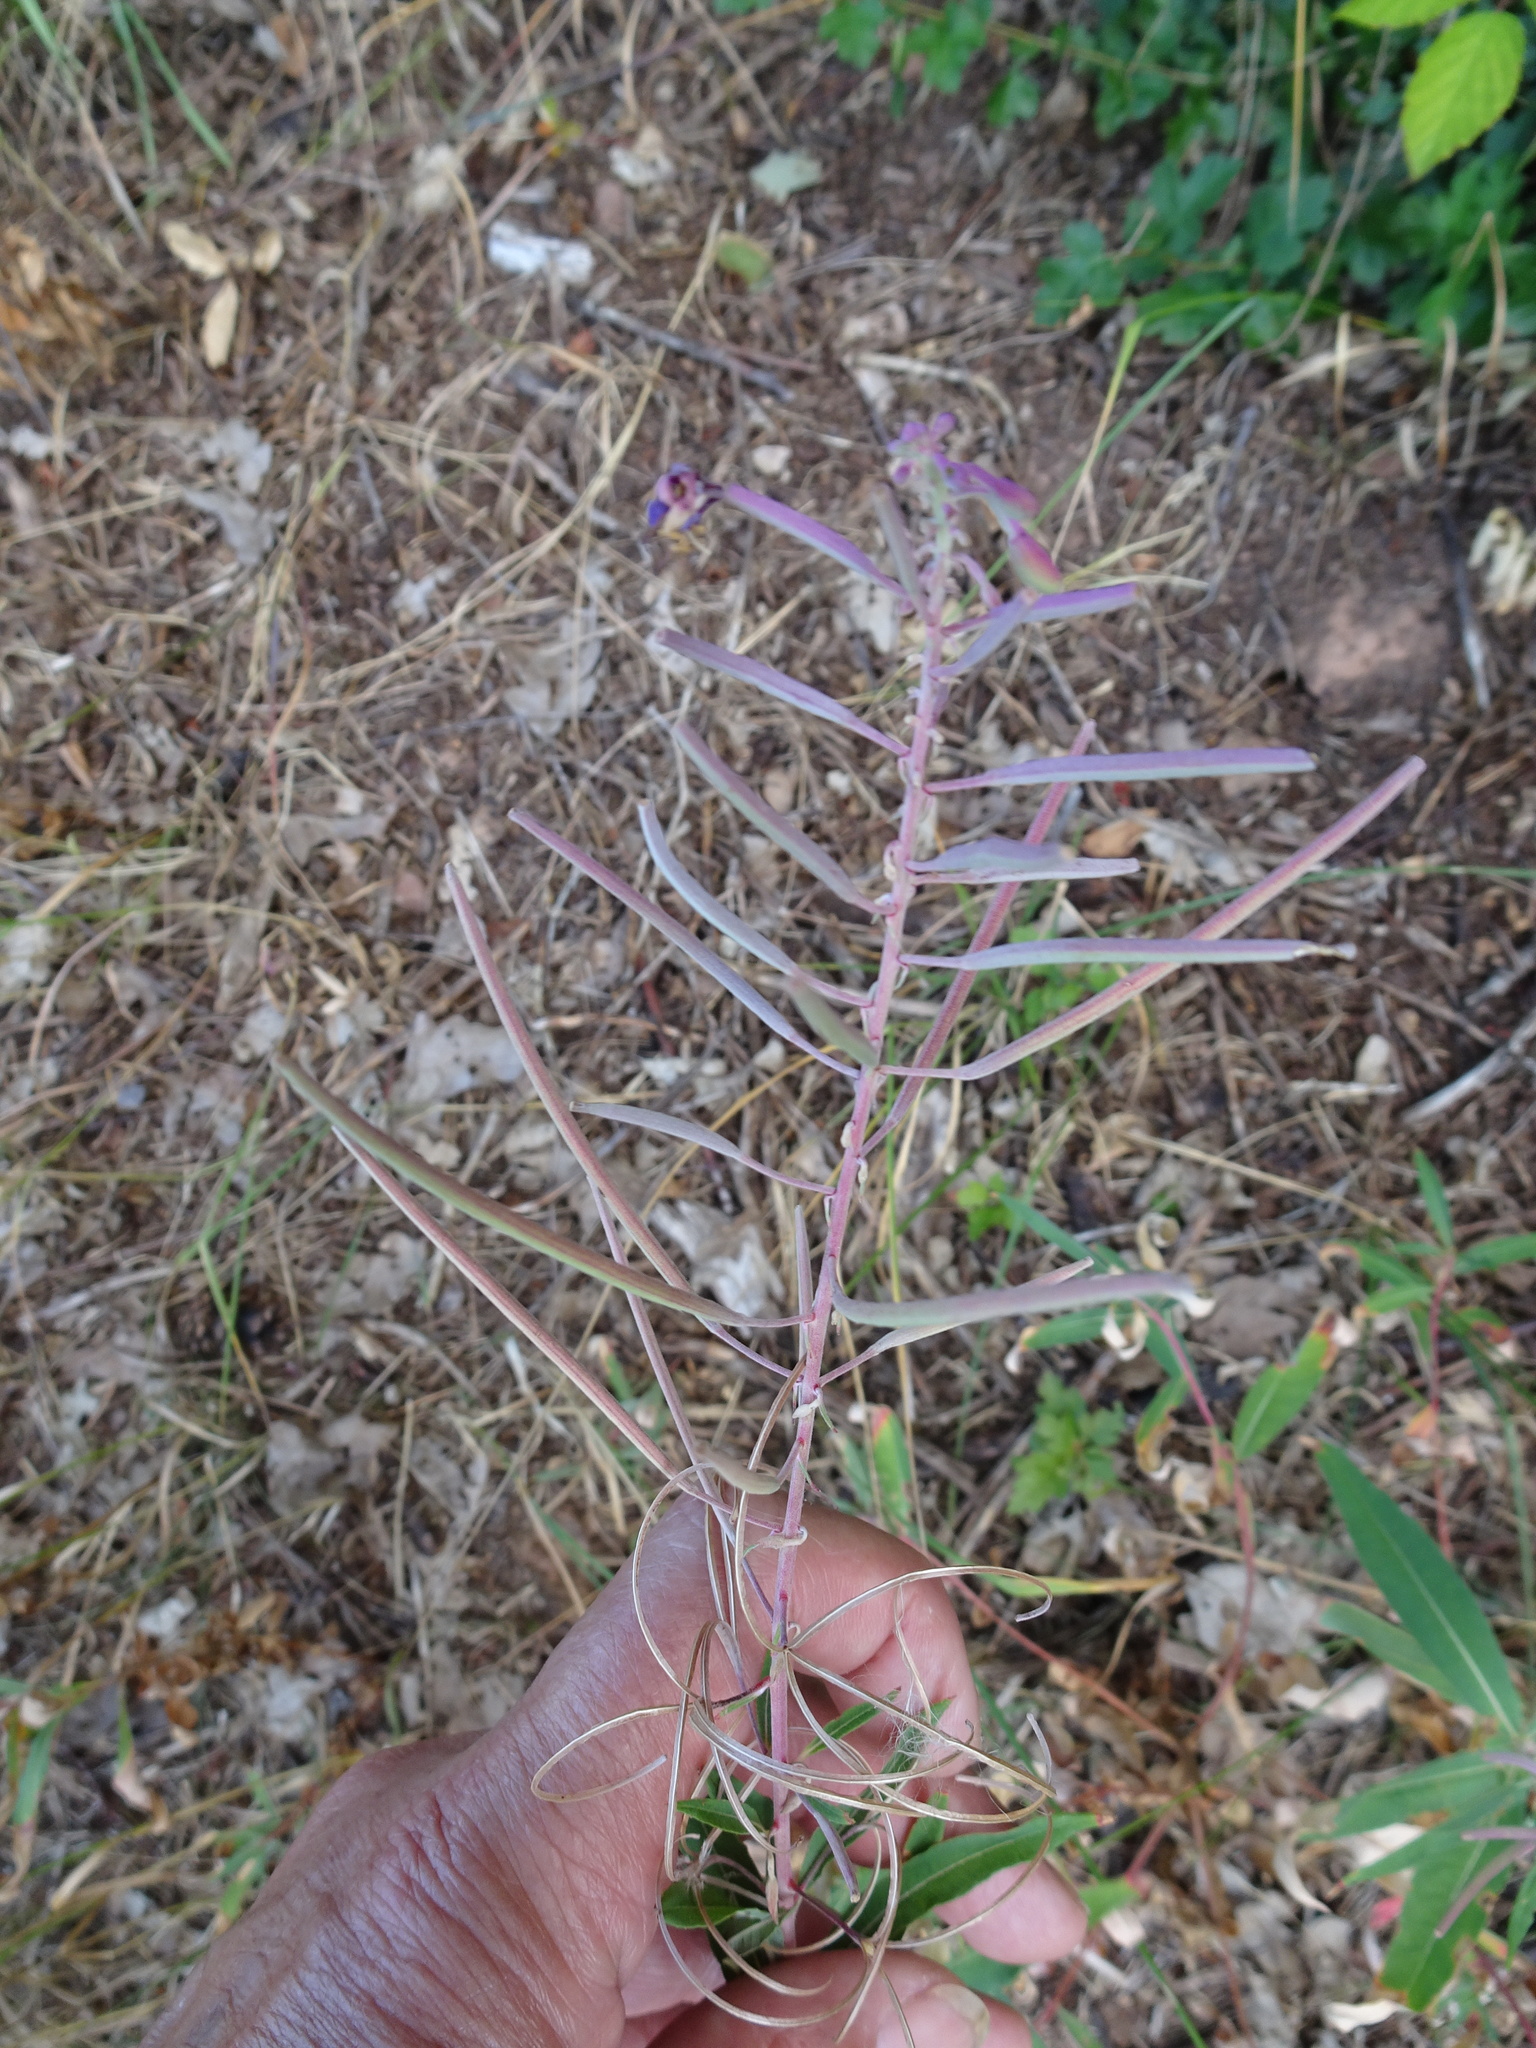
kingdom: Plantae
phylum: Tracheophyta
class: Magnoliopsida
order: Myrtales
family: Onagraceae
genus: Chamaenerion
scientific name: Chamaenerion angustifolium
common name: Fireweed
